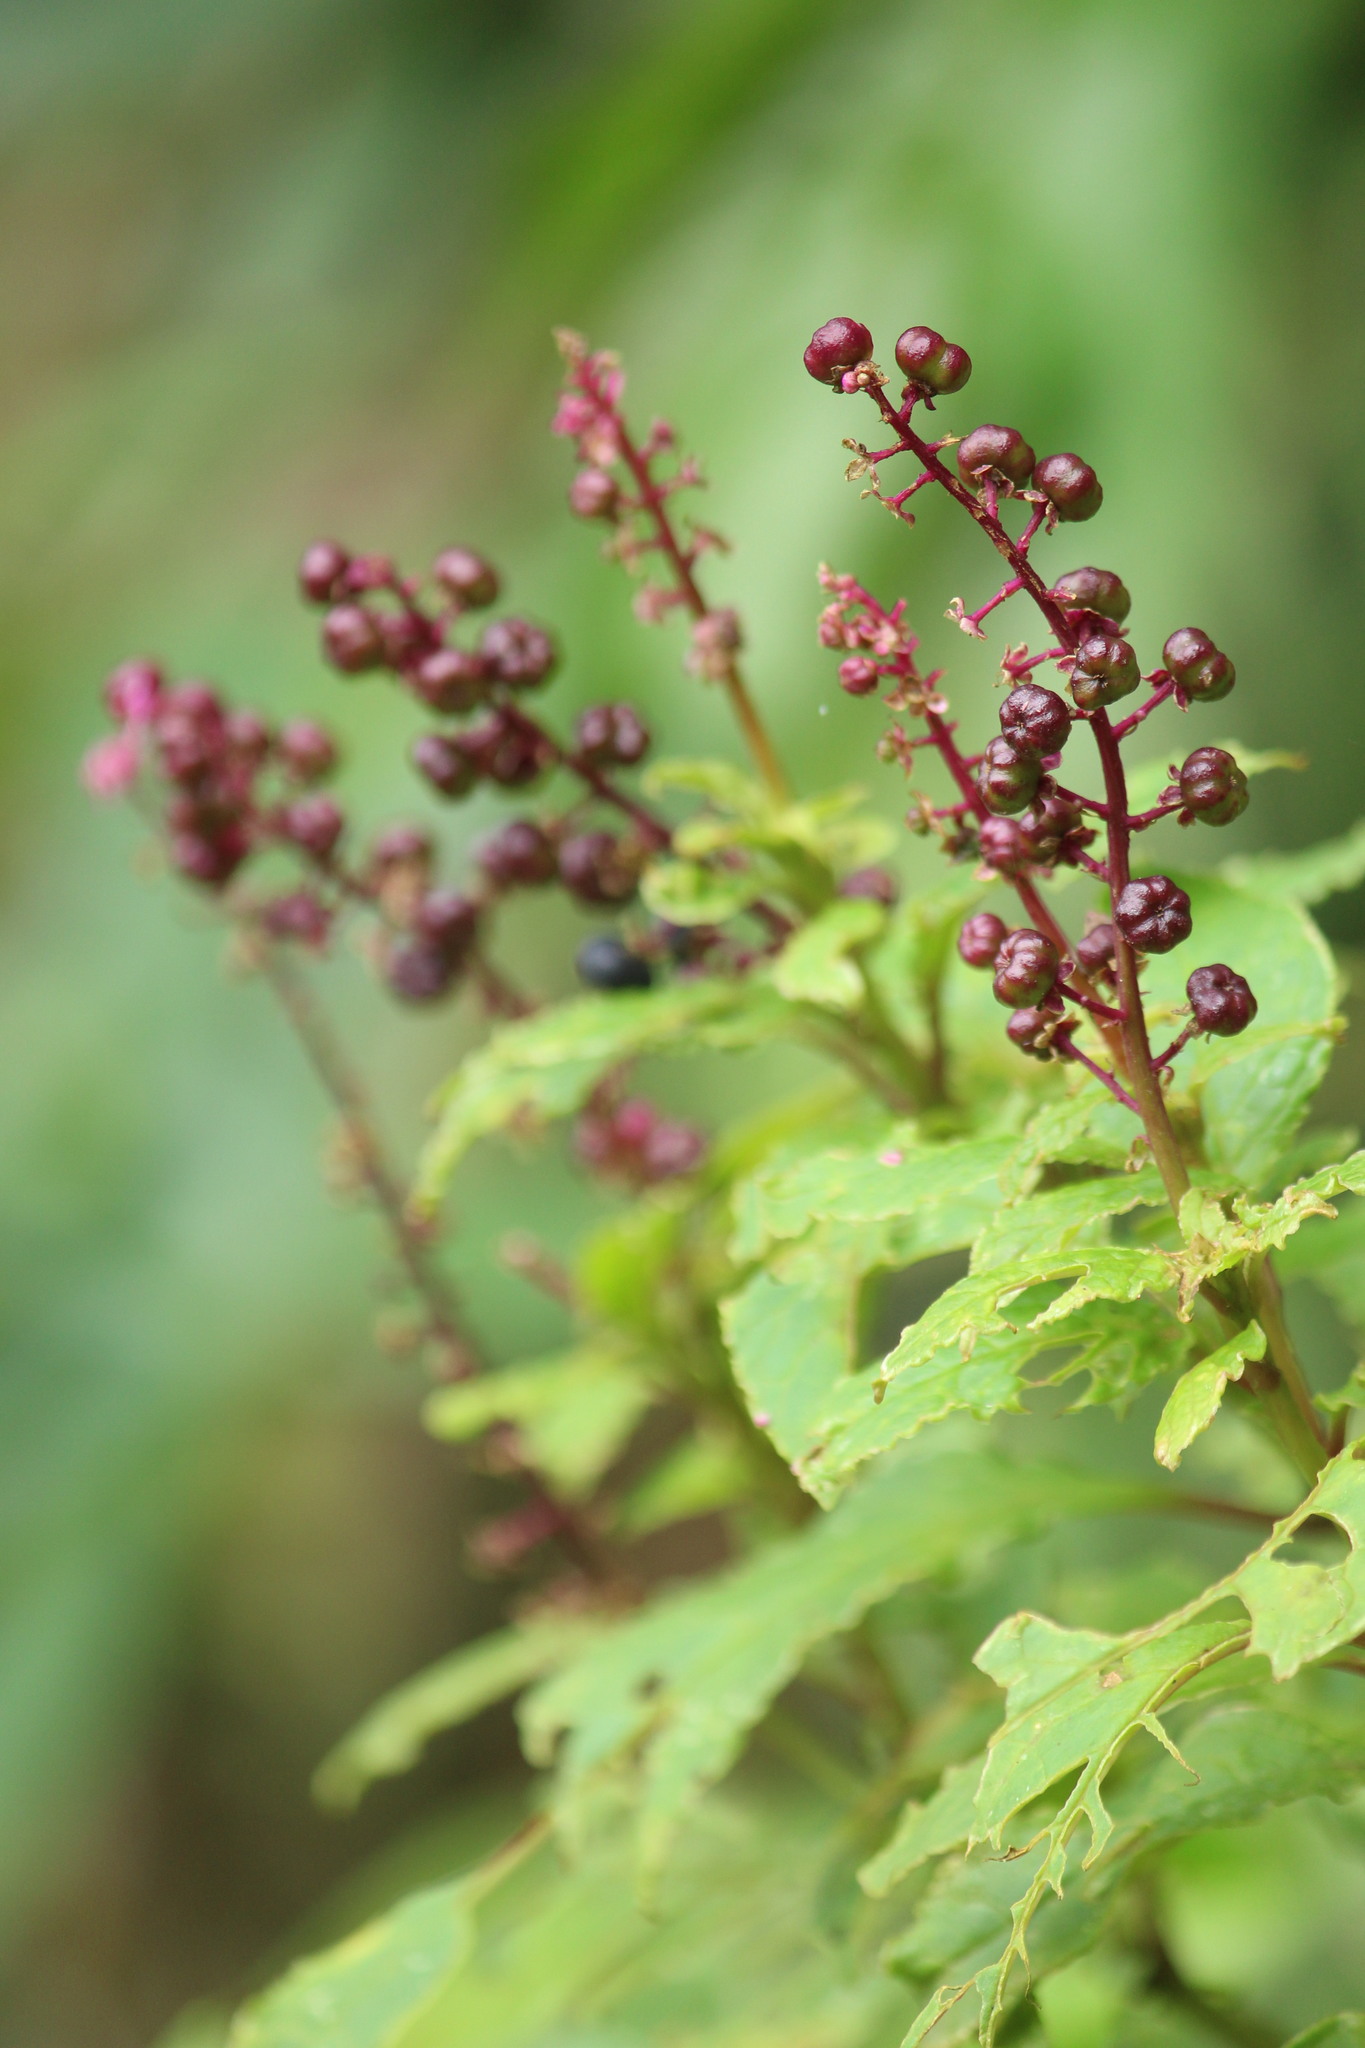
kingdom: Plantae
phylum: Tracheophyta
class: Magnoliopsida
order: Caryophyllales
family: Phytolaccaceae
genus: Phytolacca
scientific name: Phytolacca thyrsiflora
